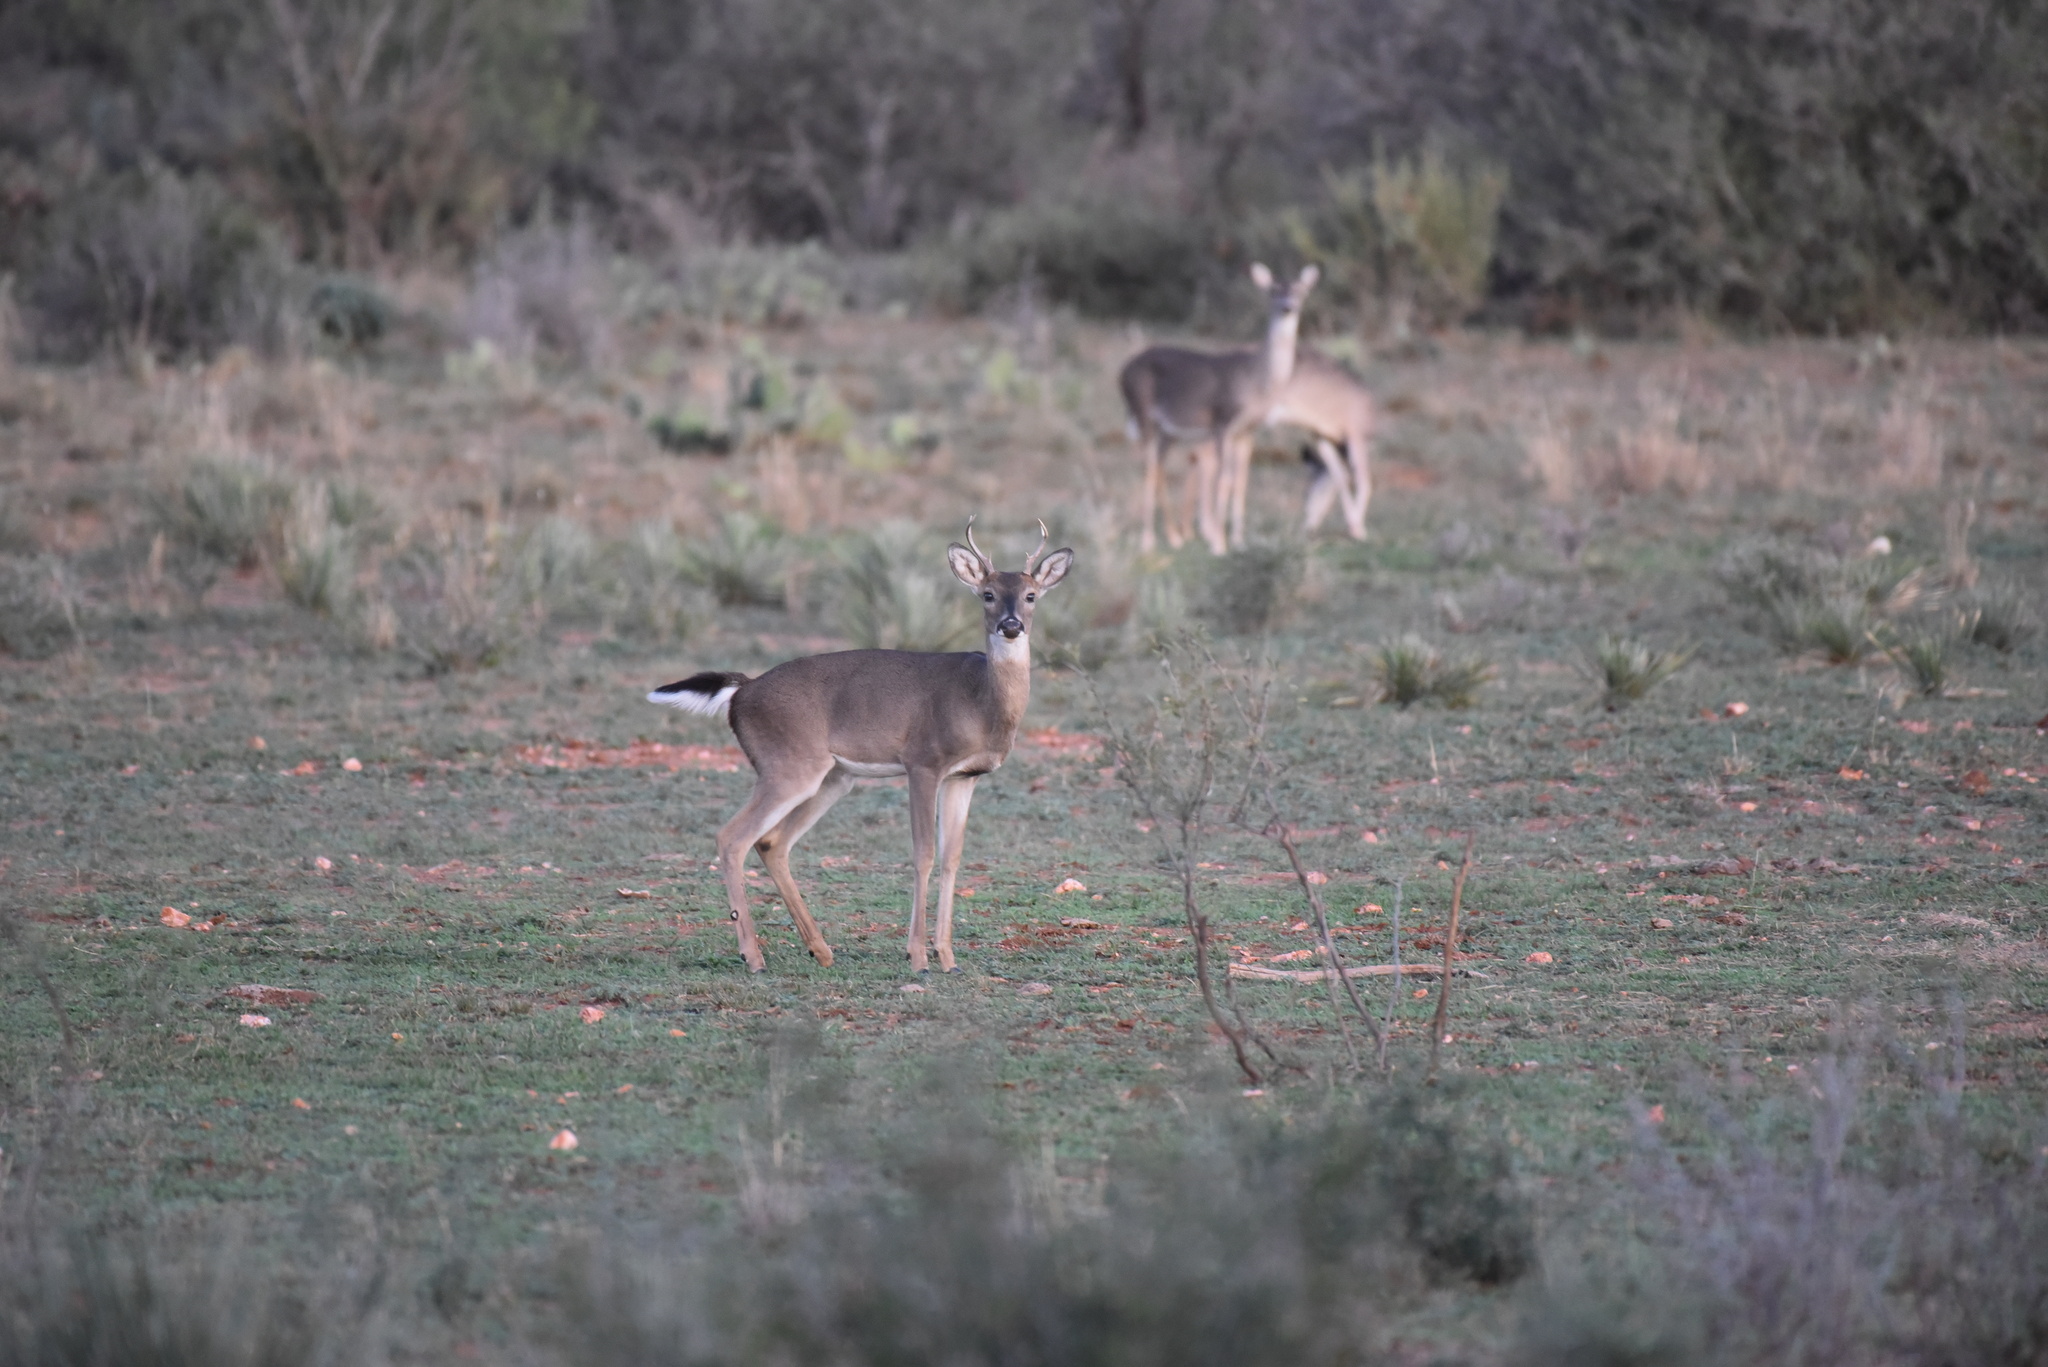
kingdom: Animalia
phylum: Chordata
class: Mammalia
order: Artiodactyla
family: Cervidae
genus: Odocoileus
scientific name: Odocoileus virginianus
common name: White-tailed deer
